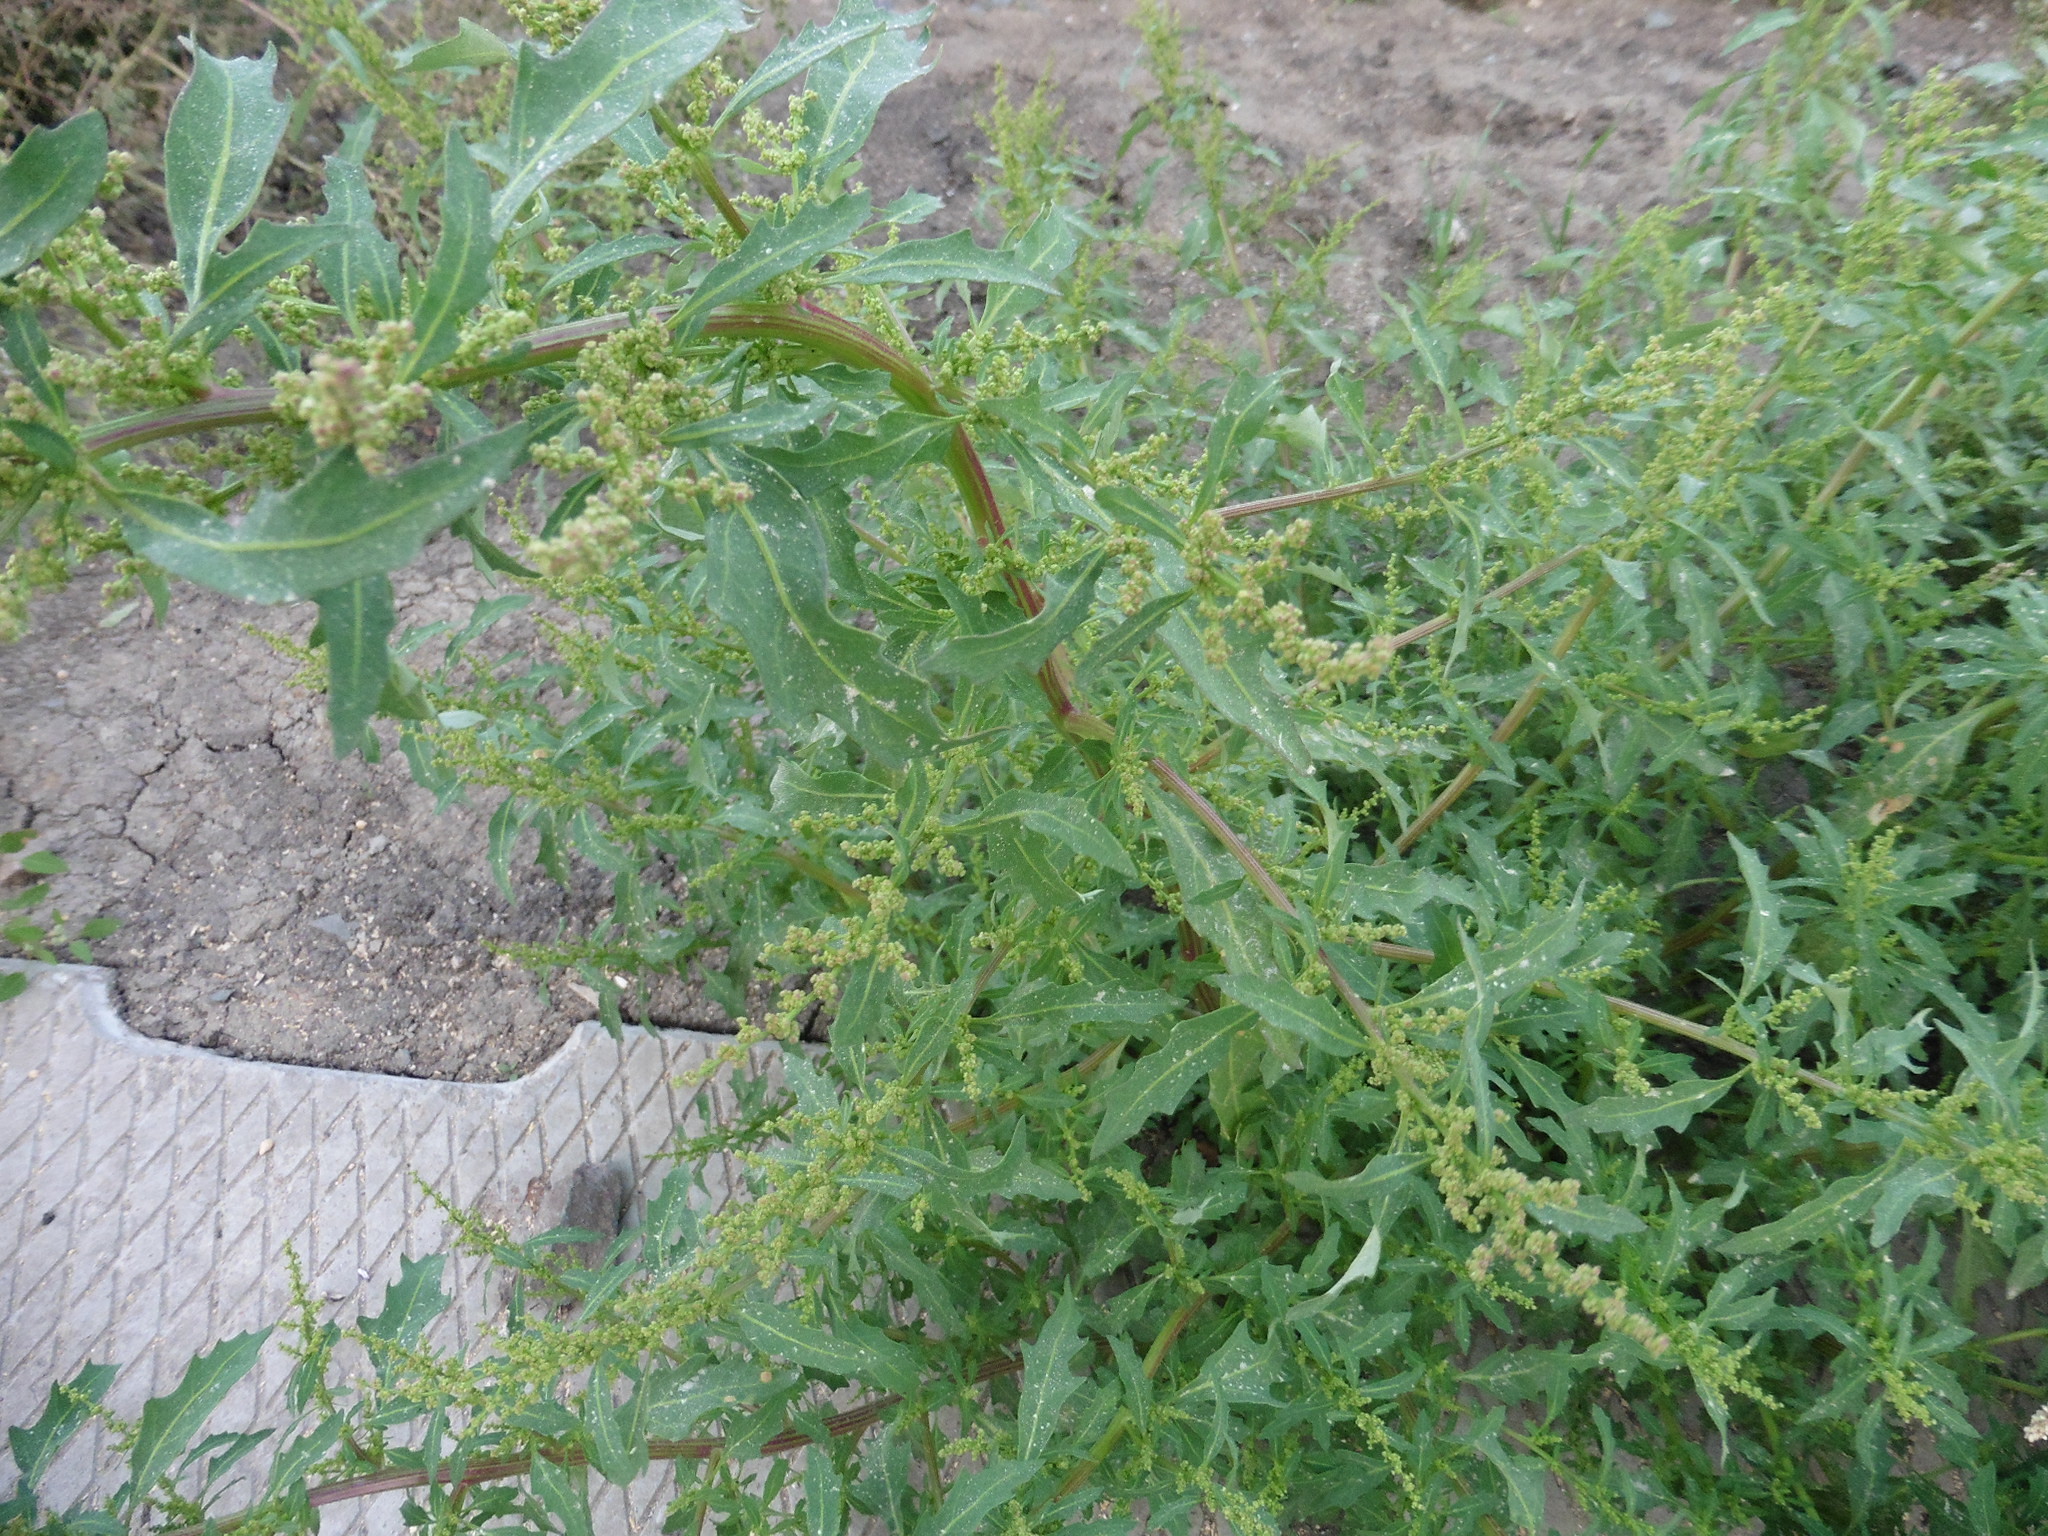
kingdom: Plantae
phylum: Tracheophyta
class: Magnoliopsida
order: Caryophyllales
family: Amaranthaceae
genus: Oxybasis
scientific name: Oxybasis glauca
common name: Glaucous goosefoot
